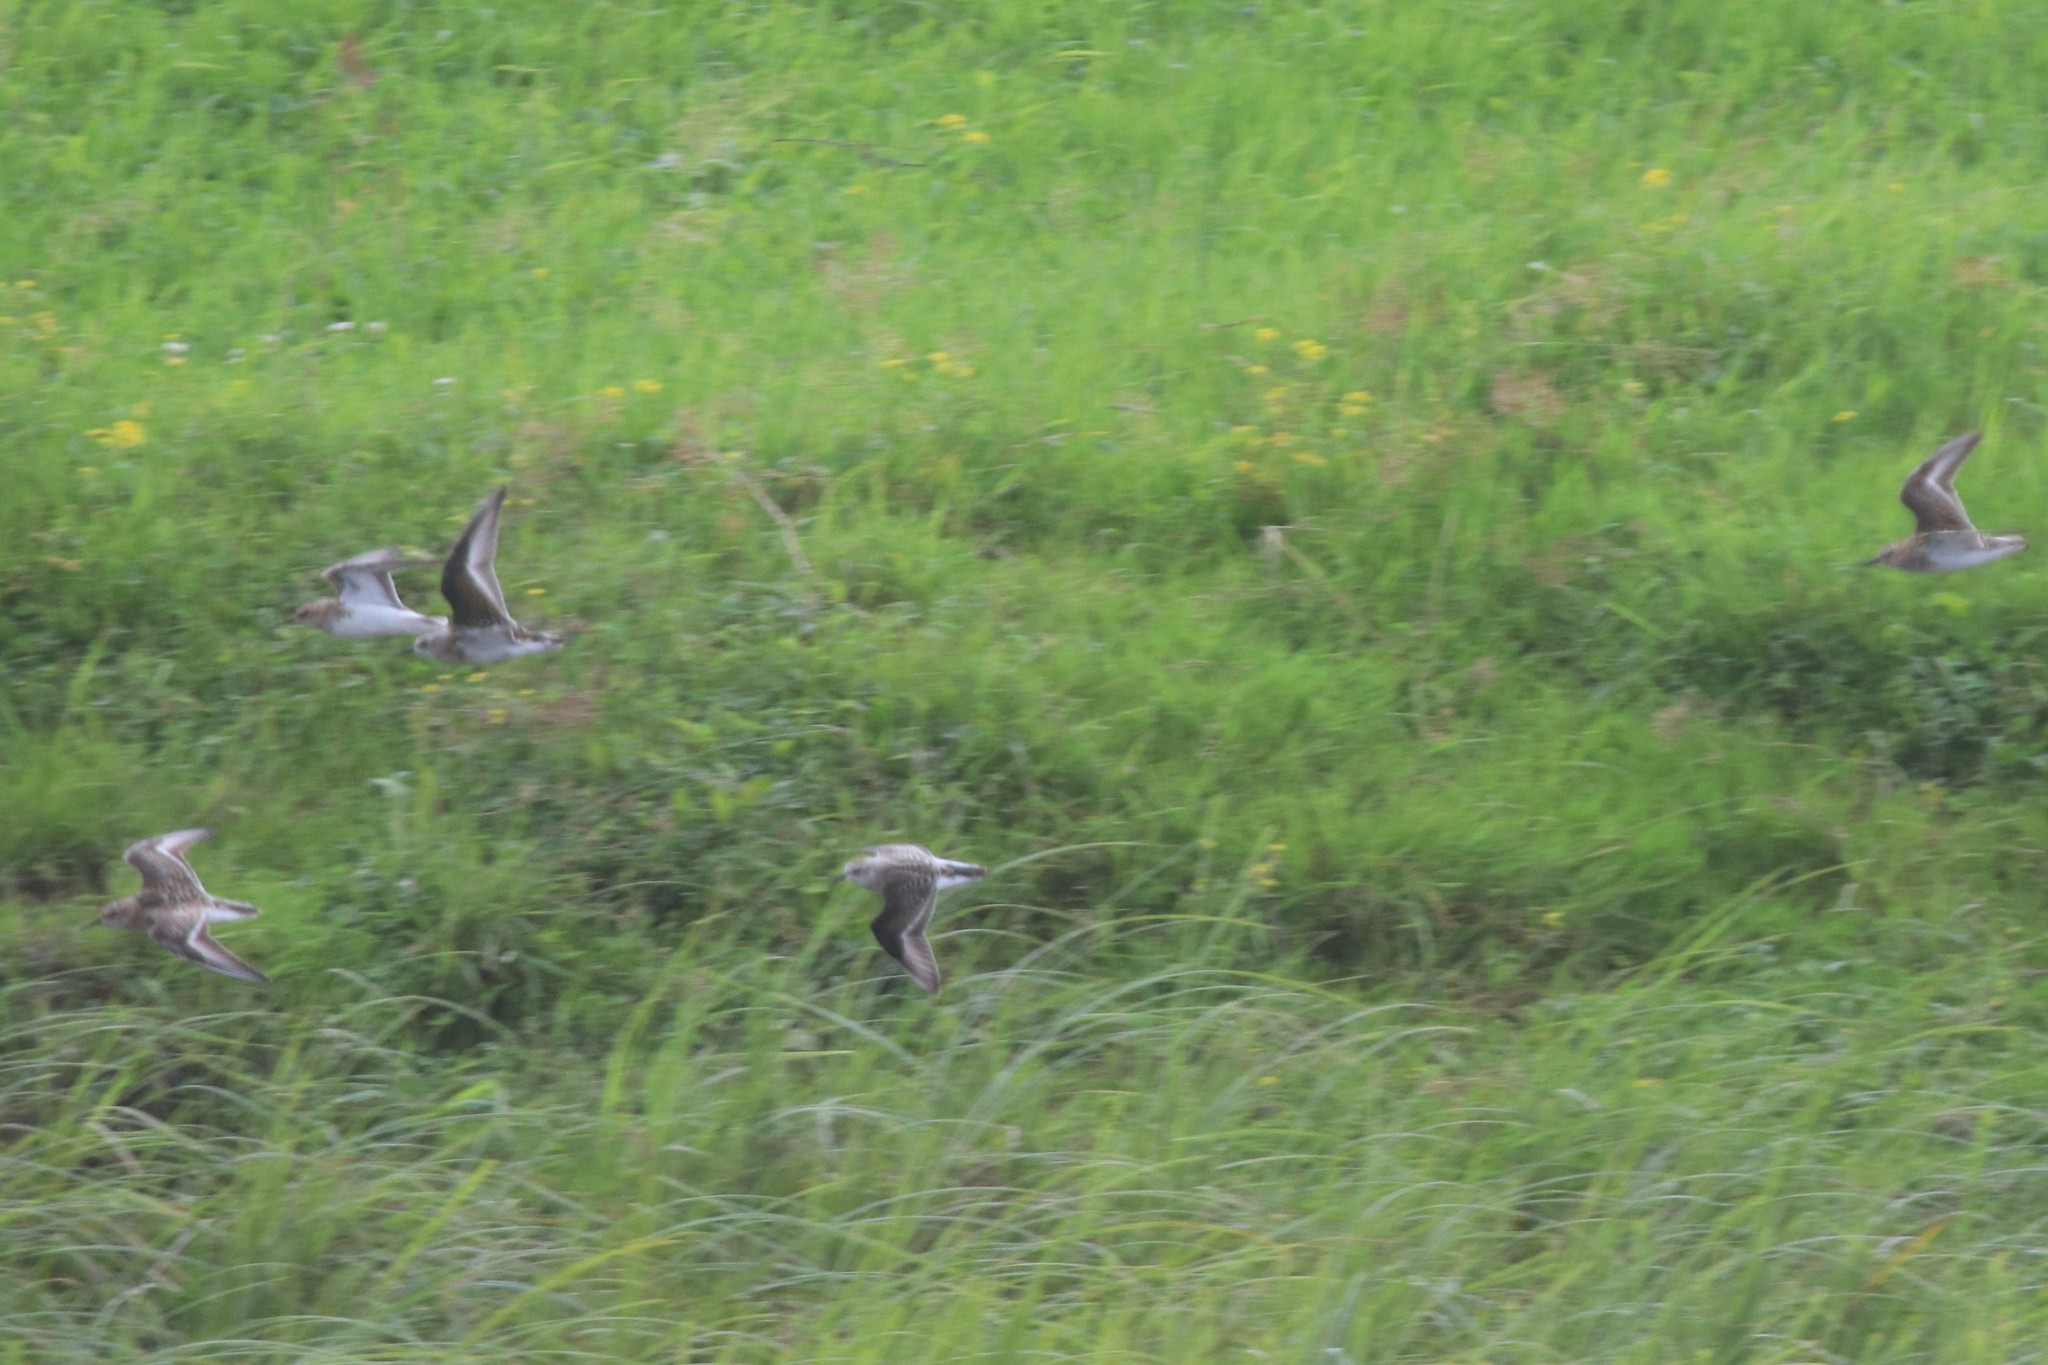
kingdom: Animalia
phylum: Chordata
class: Aves
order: Charadriiformes
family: Scolopacidae
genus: Calidris
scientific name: Calidris minuta
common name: Little stint
